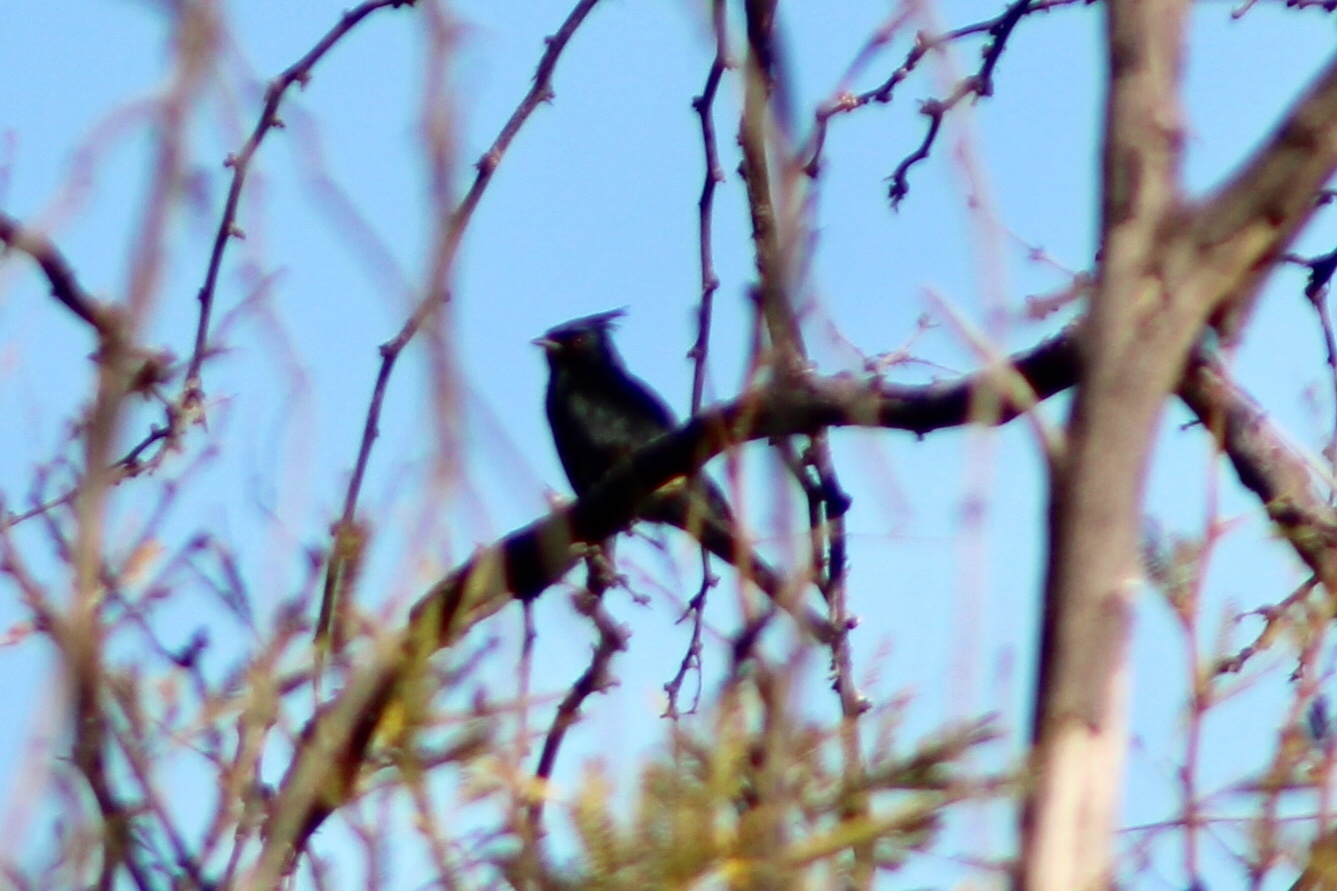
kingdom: Animalia
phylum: Chordata
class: Aves
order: Passeriformes
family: Ptilogonatidae
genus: Phainopepla
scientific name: Phainopepla nitens
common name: Phainopepla
